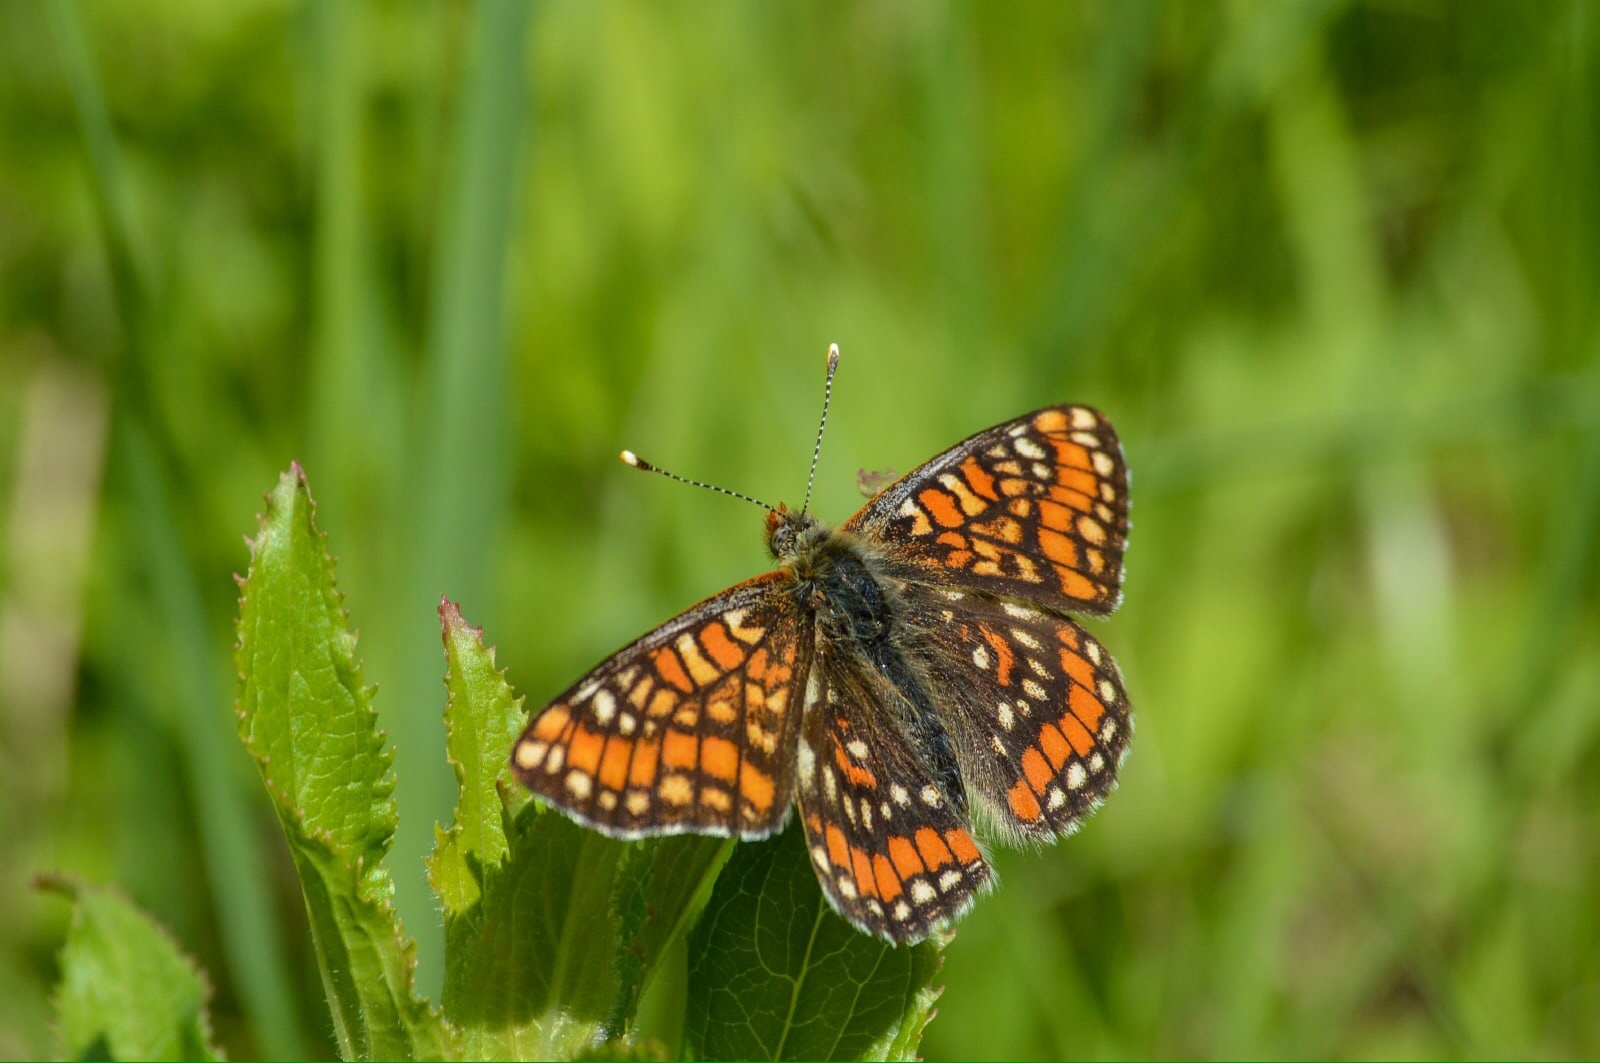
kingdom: Animalia
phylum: Arthropoda
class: Insecta
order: Lepidoptera
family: Nymphalidae
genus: Euphydryas
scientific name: Euphydryas maturna
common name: Scarce fritillary
